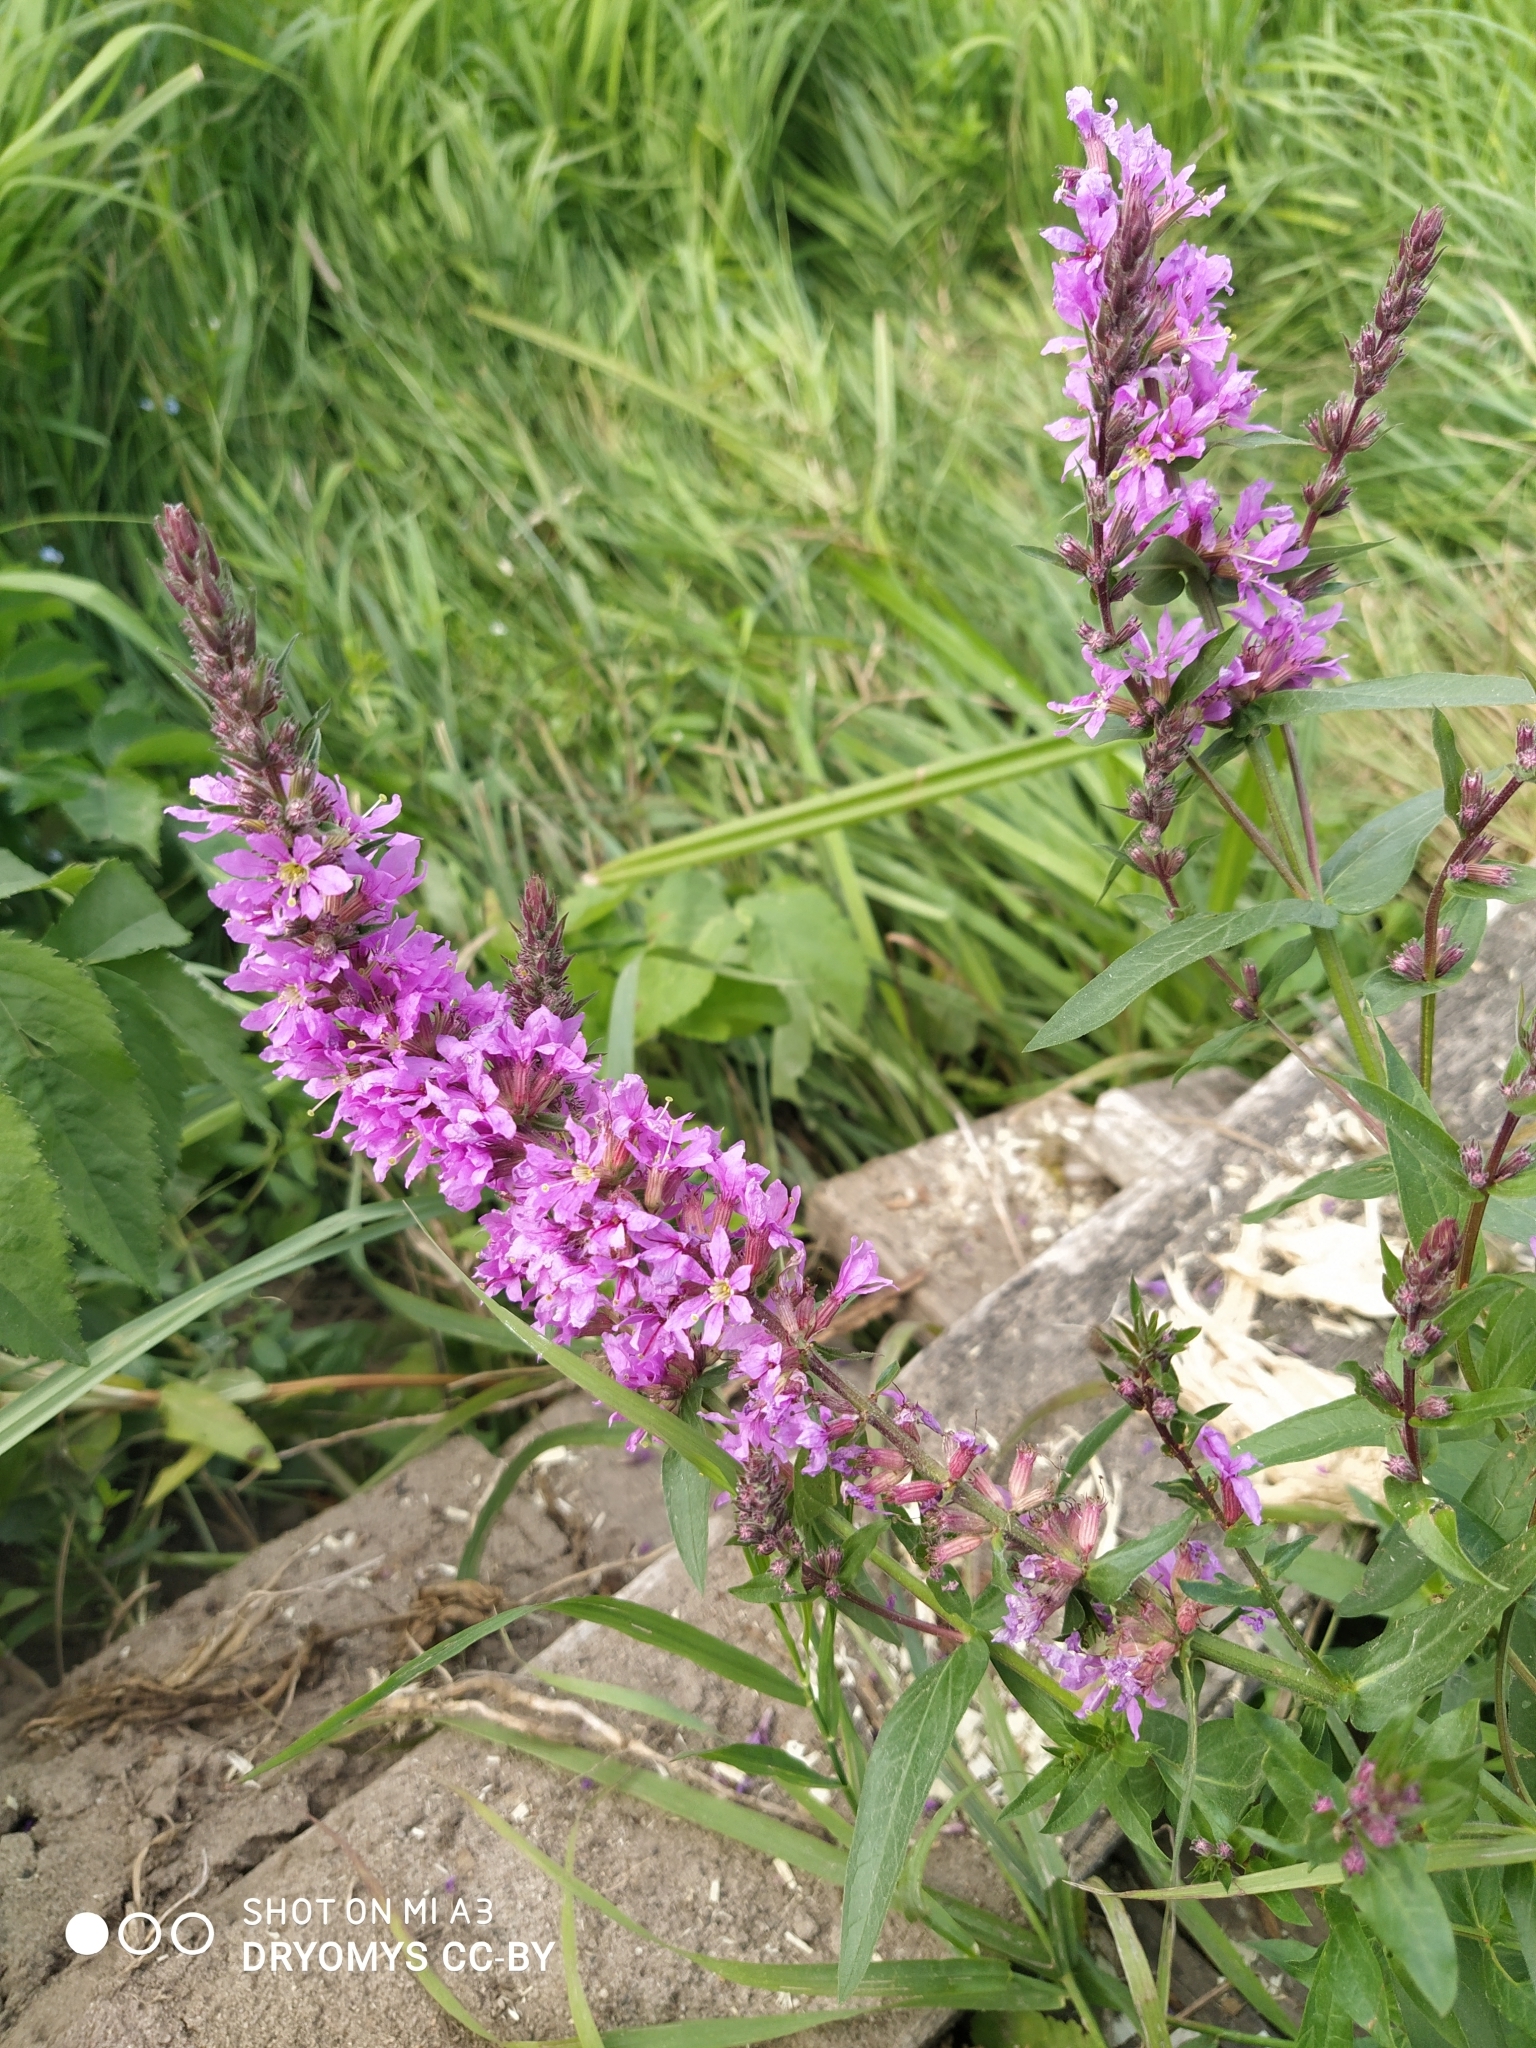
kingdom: Plantae
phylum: Tracheophyta
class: Magnoliopsida
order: Myrtales
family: Lythraceae
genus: Lythrum
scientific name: Lythrum salicaria
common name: Purple loosestrife
